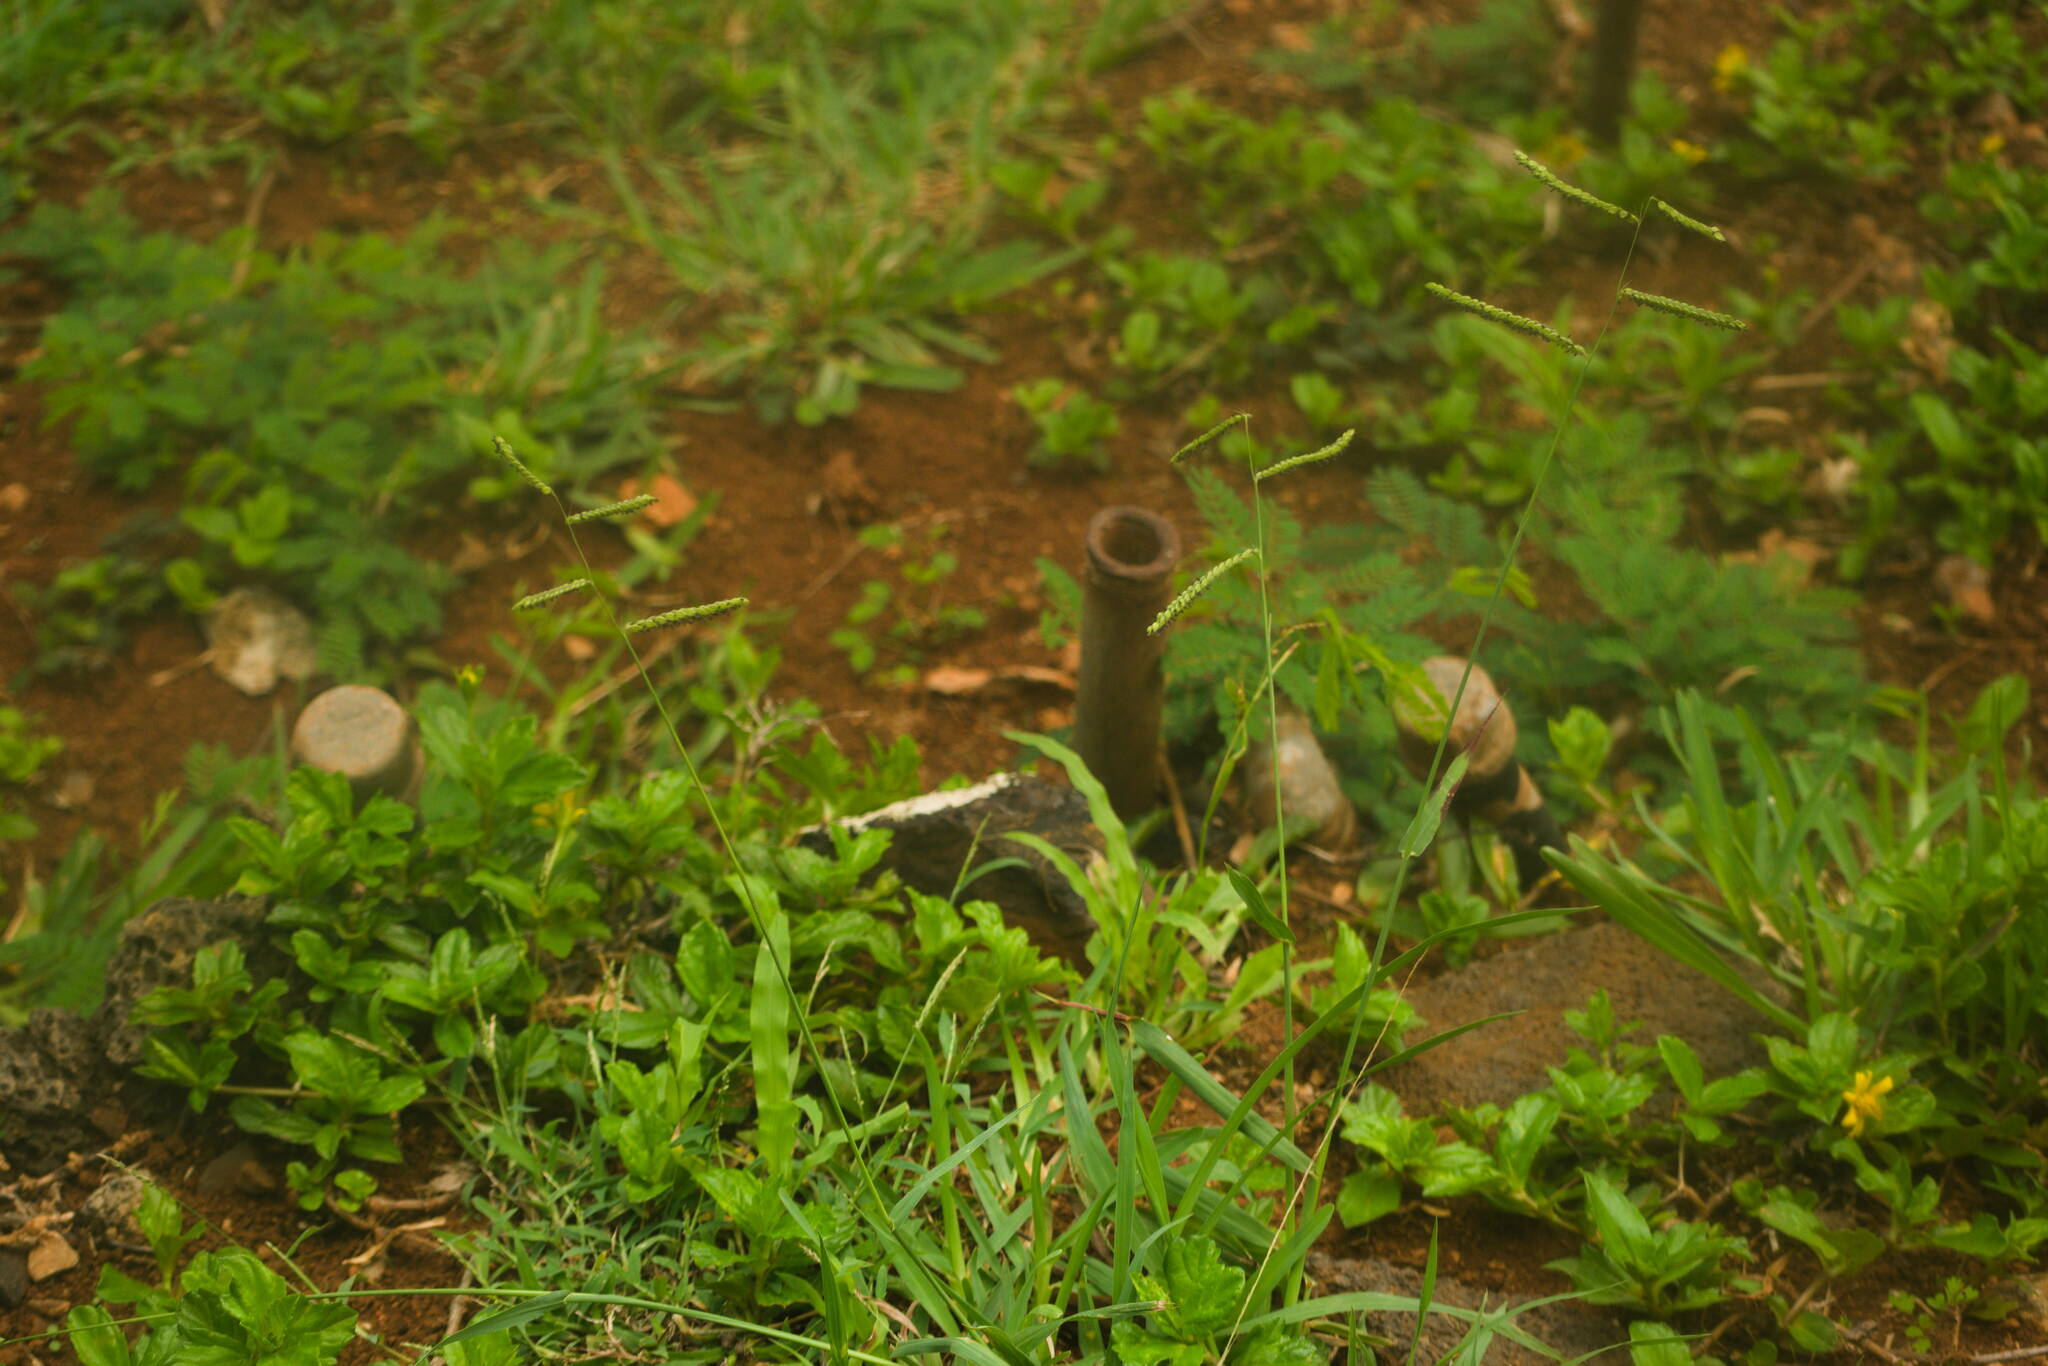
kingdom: Plantae
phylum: Tracheophyta
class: Liliopsida
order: Poales
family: Poaceae
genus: Paspalum
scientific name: Paspalum dilatatum
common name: Dallisgrass
